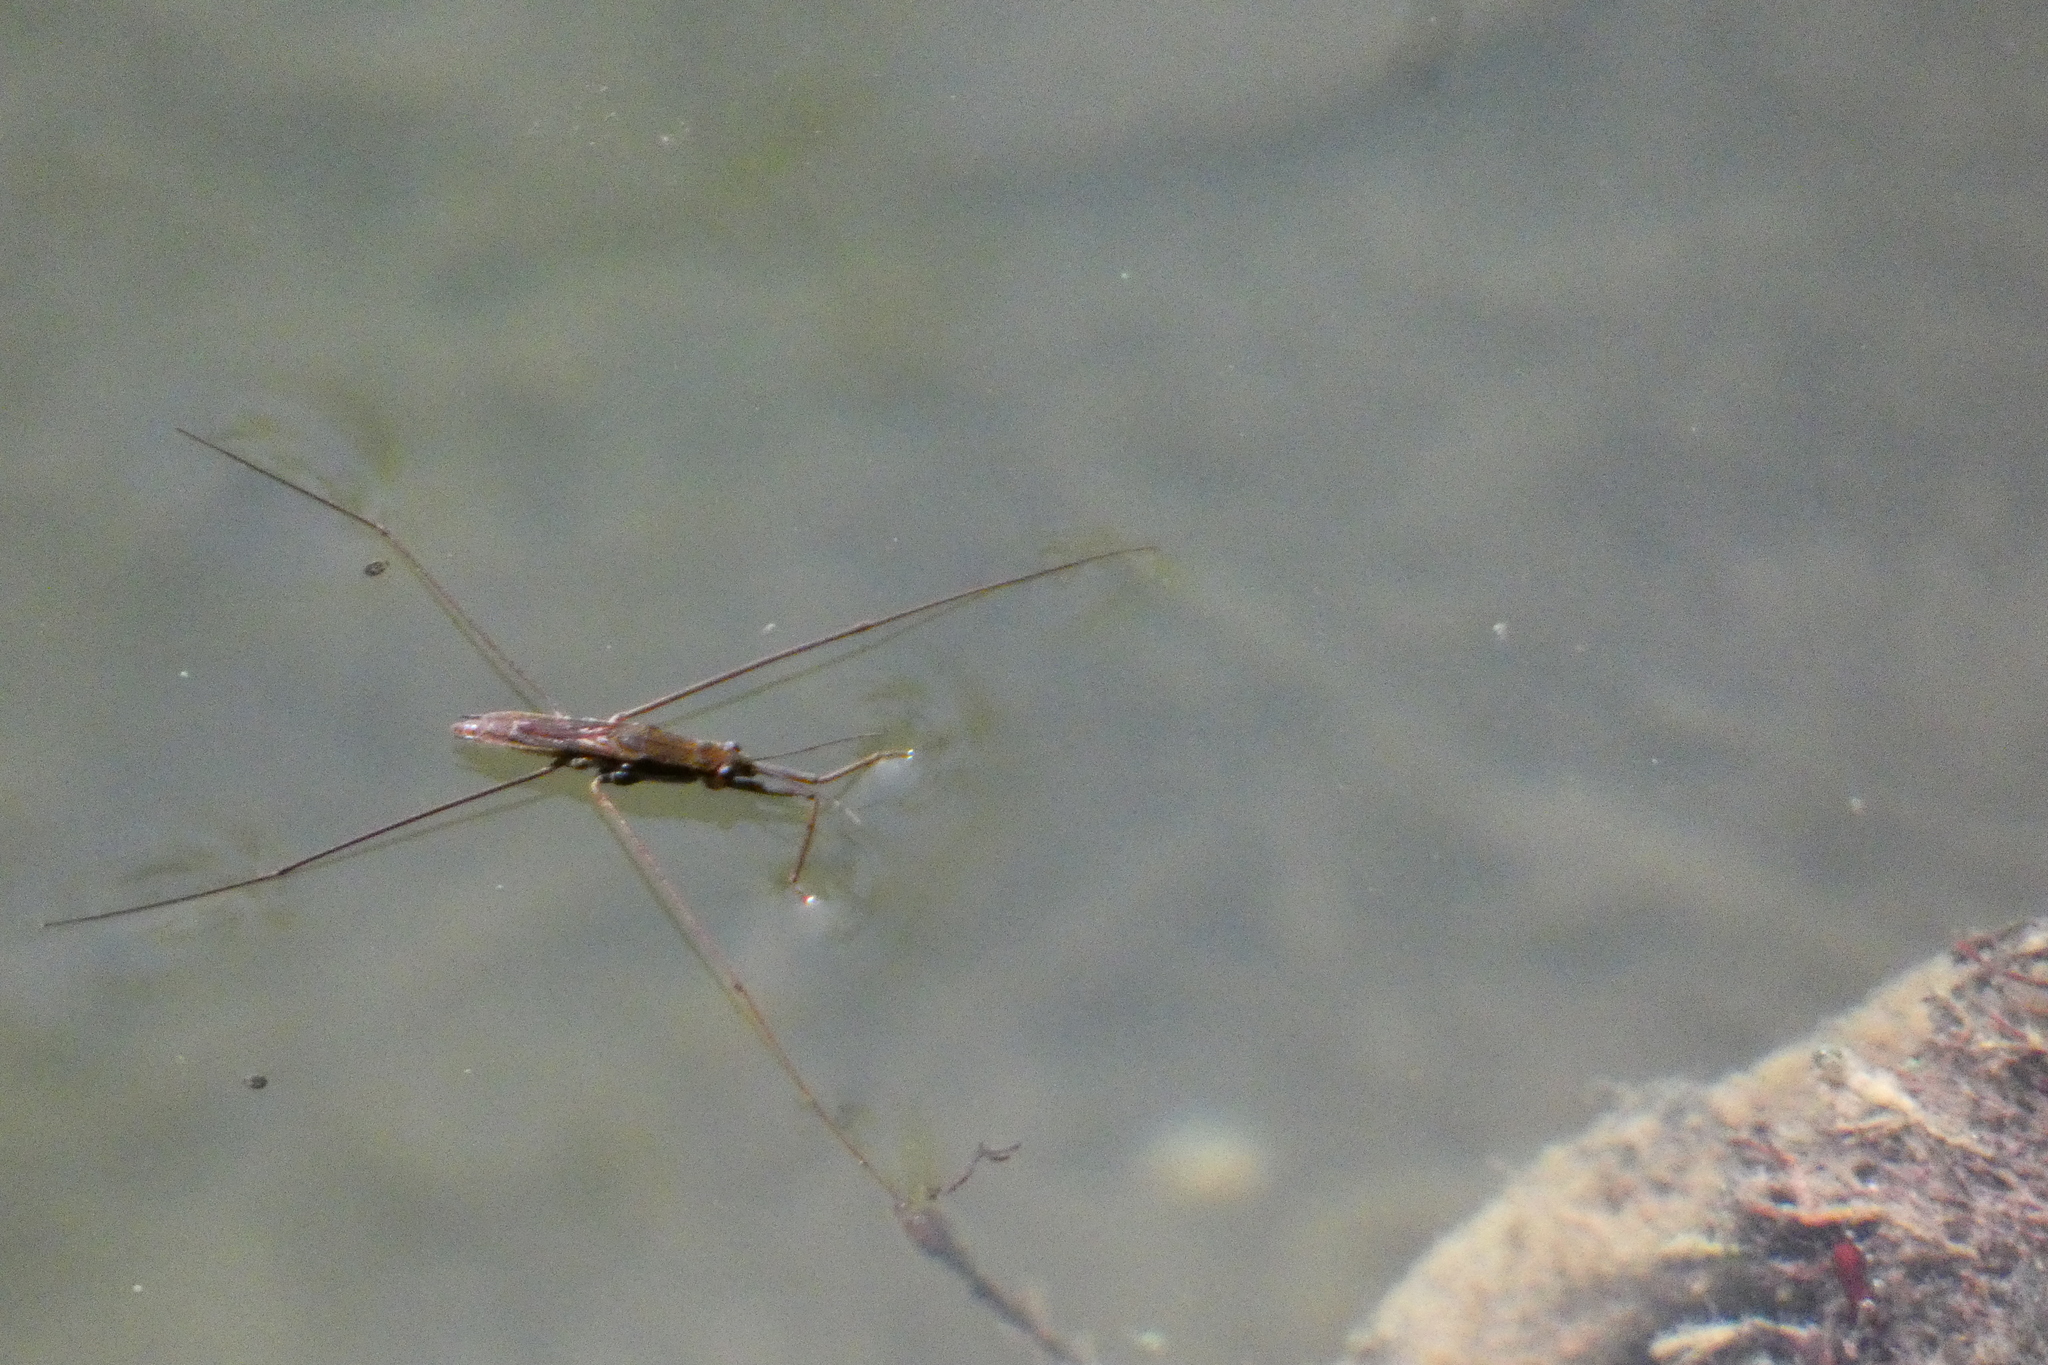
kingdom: Animalia
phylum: Arthropoda
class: Insecta
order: Hemiptera
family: Gerridae
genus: Aquarius
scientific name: Aquarius paludum
